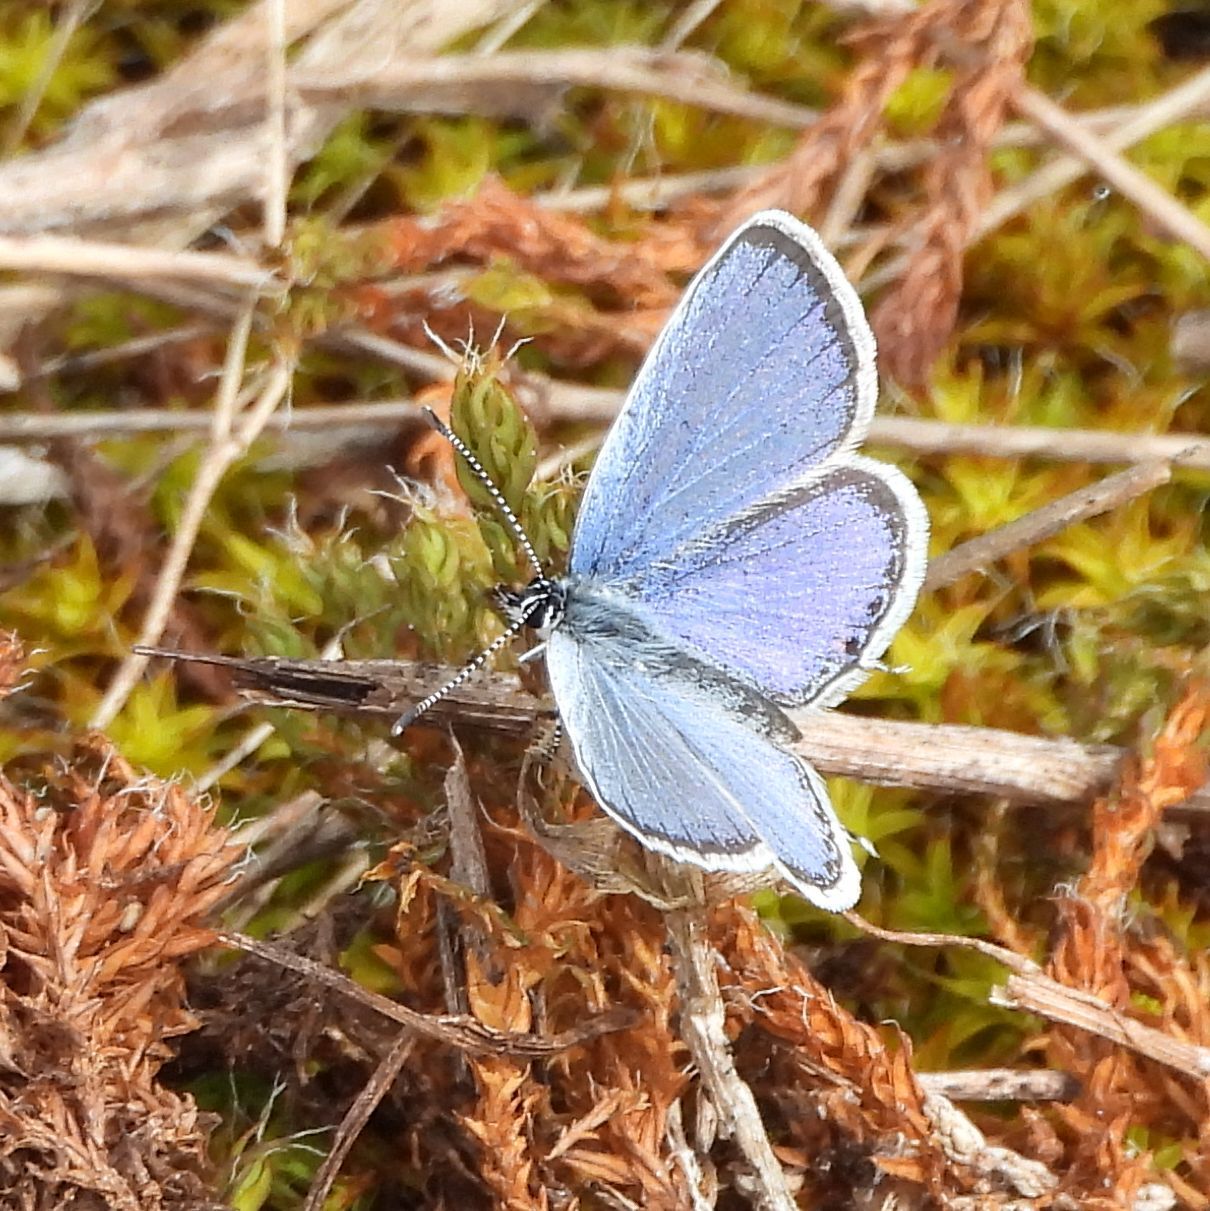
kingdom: Animalia
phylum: Arthropoda
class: Insecta
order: Lepidoptera
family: Lycaenidae
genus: Elkalyce
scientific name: Elkalyce comyntas
